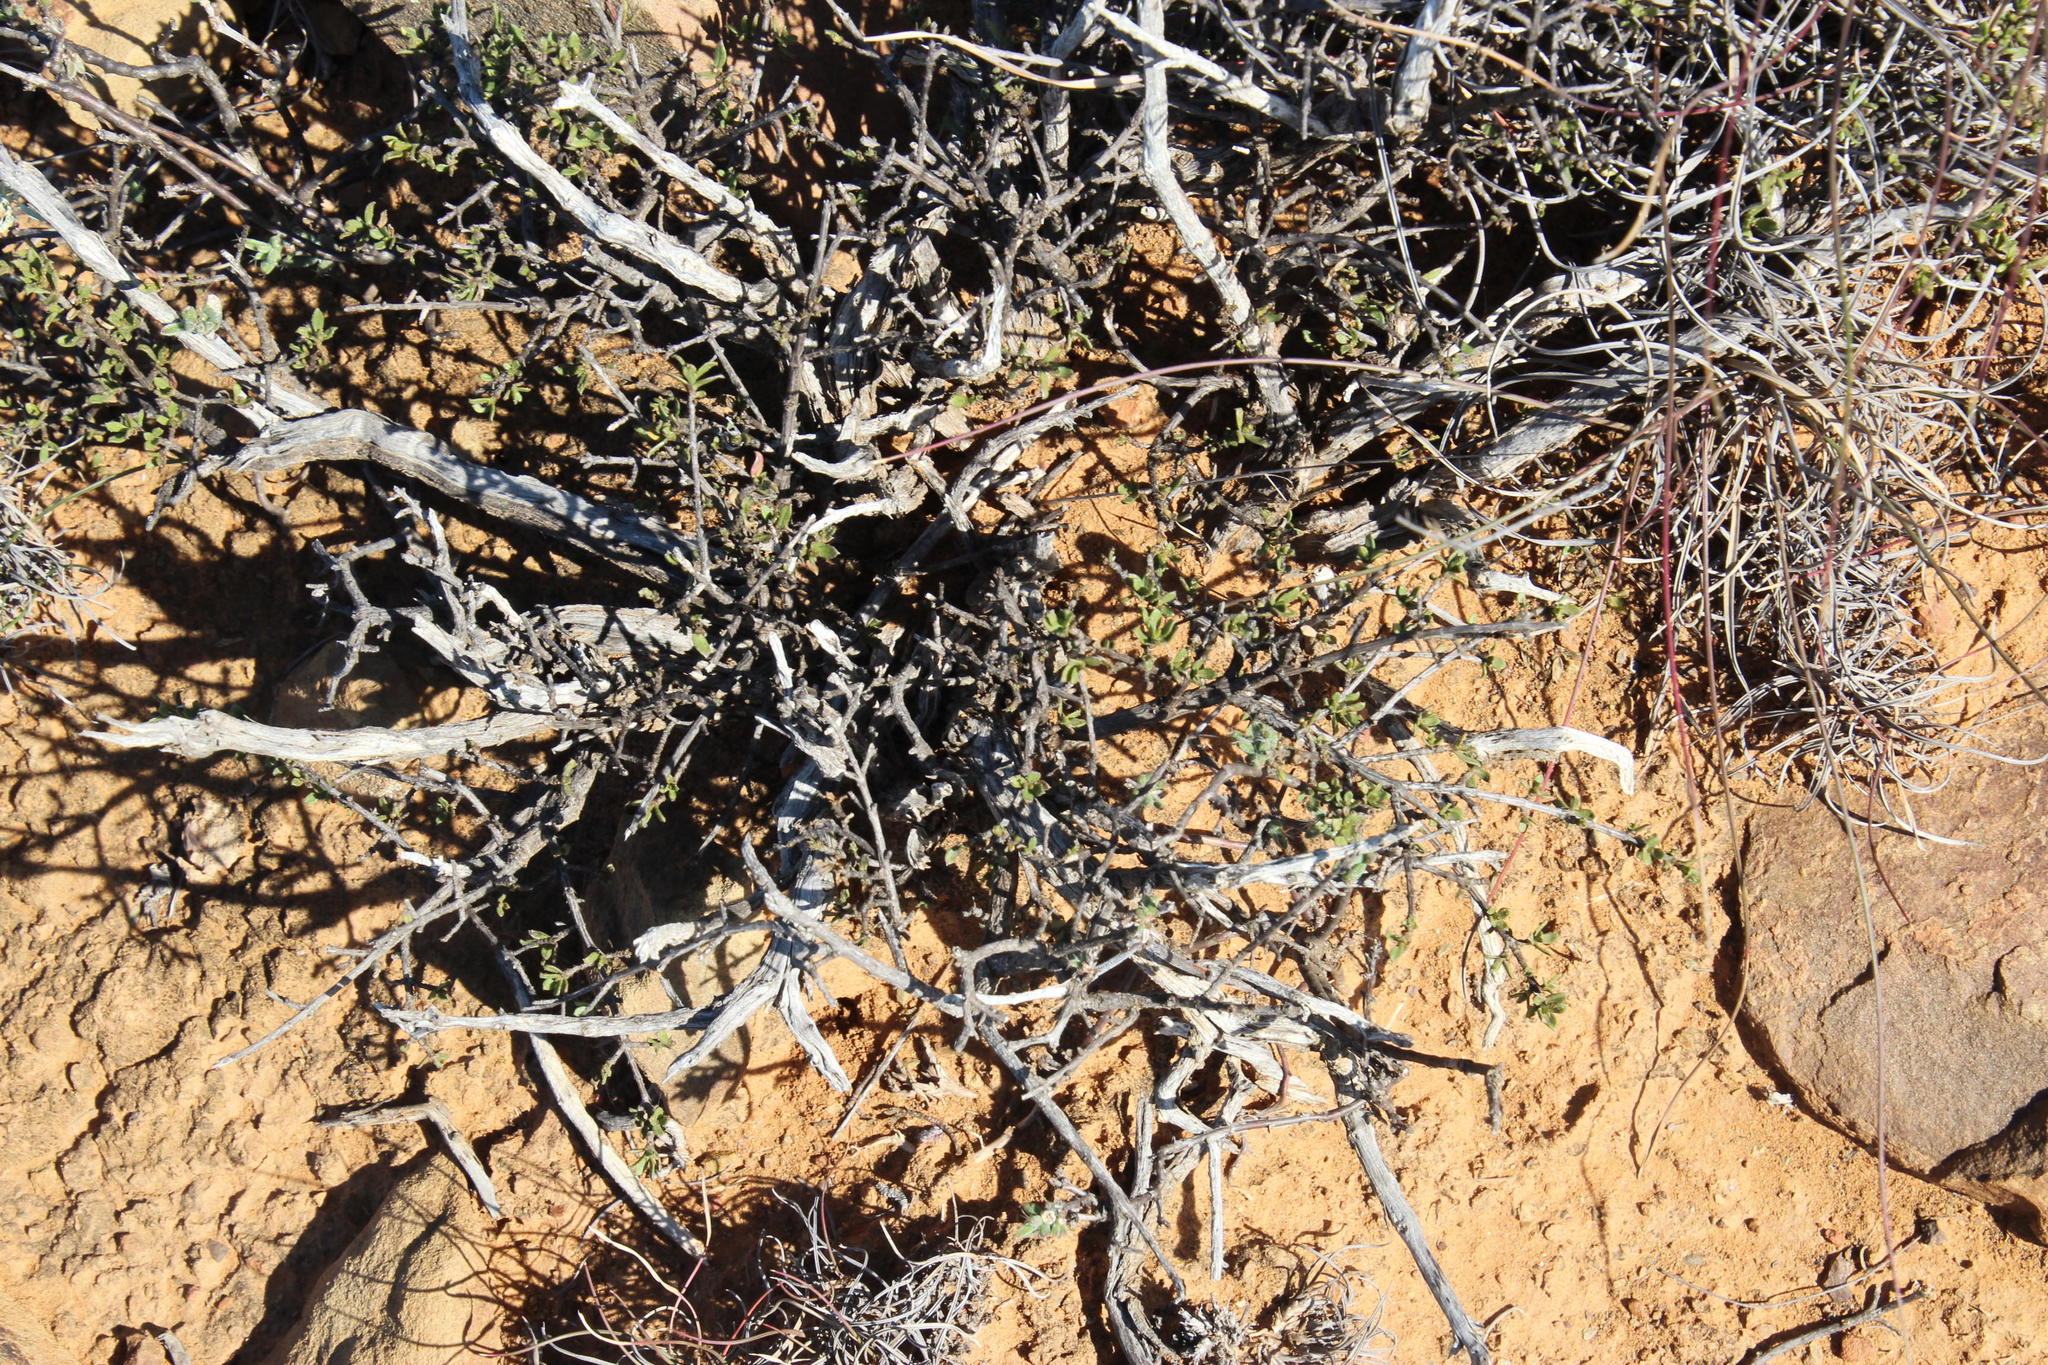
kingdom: Plantae
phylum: Tracheophyta
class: Magnoliopsida
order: Asterales
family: Asteraceae
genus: Pteronia
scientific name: Pteronia adenocarpa
